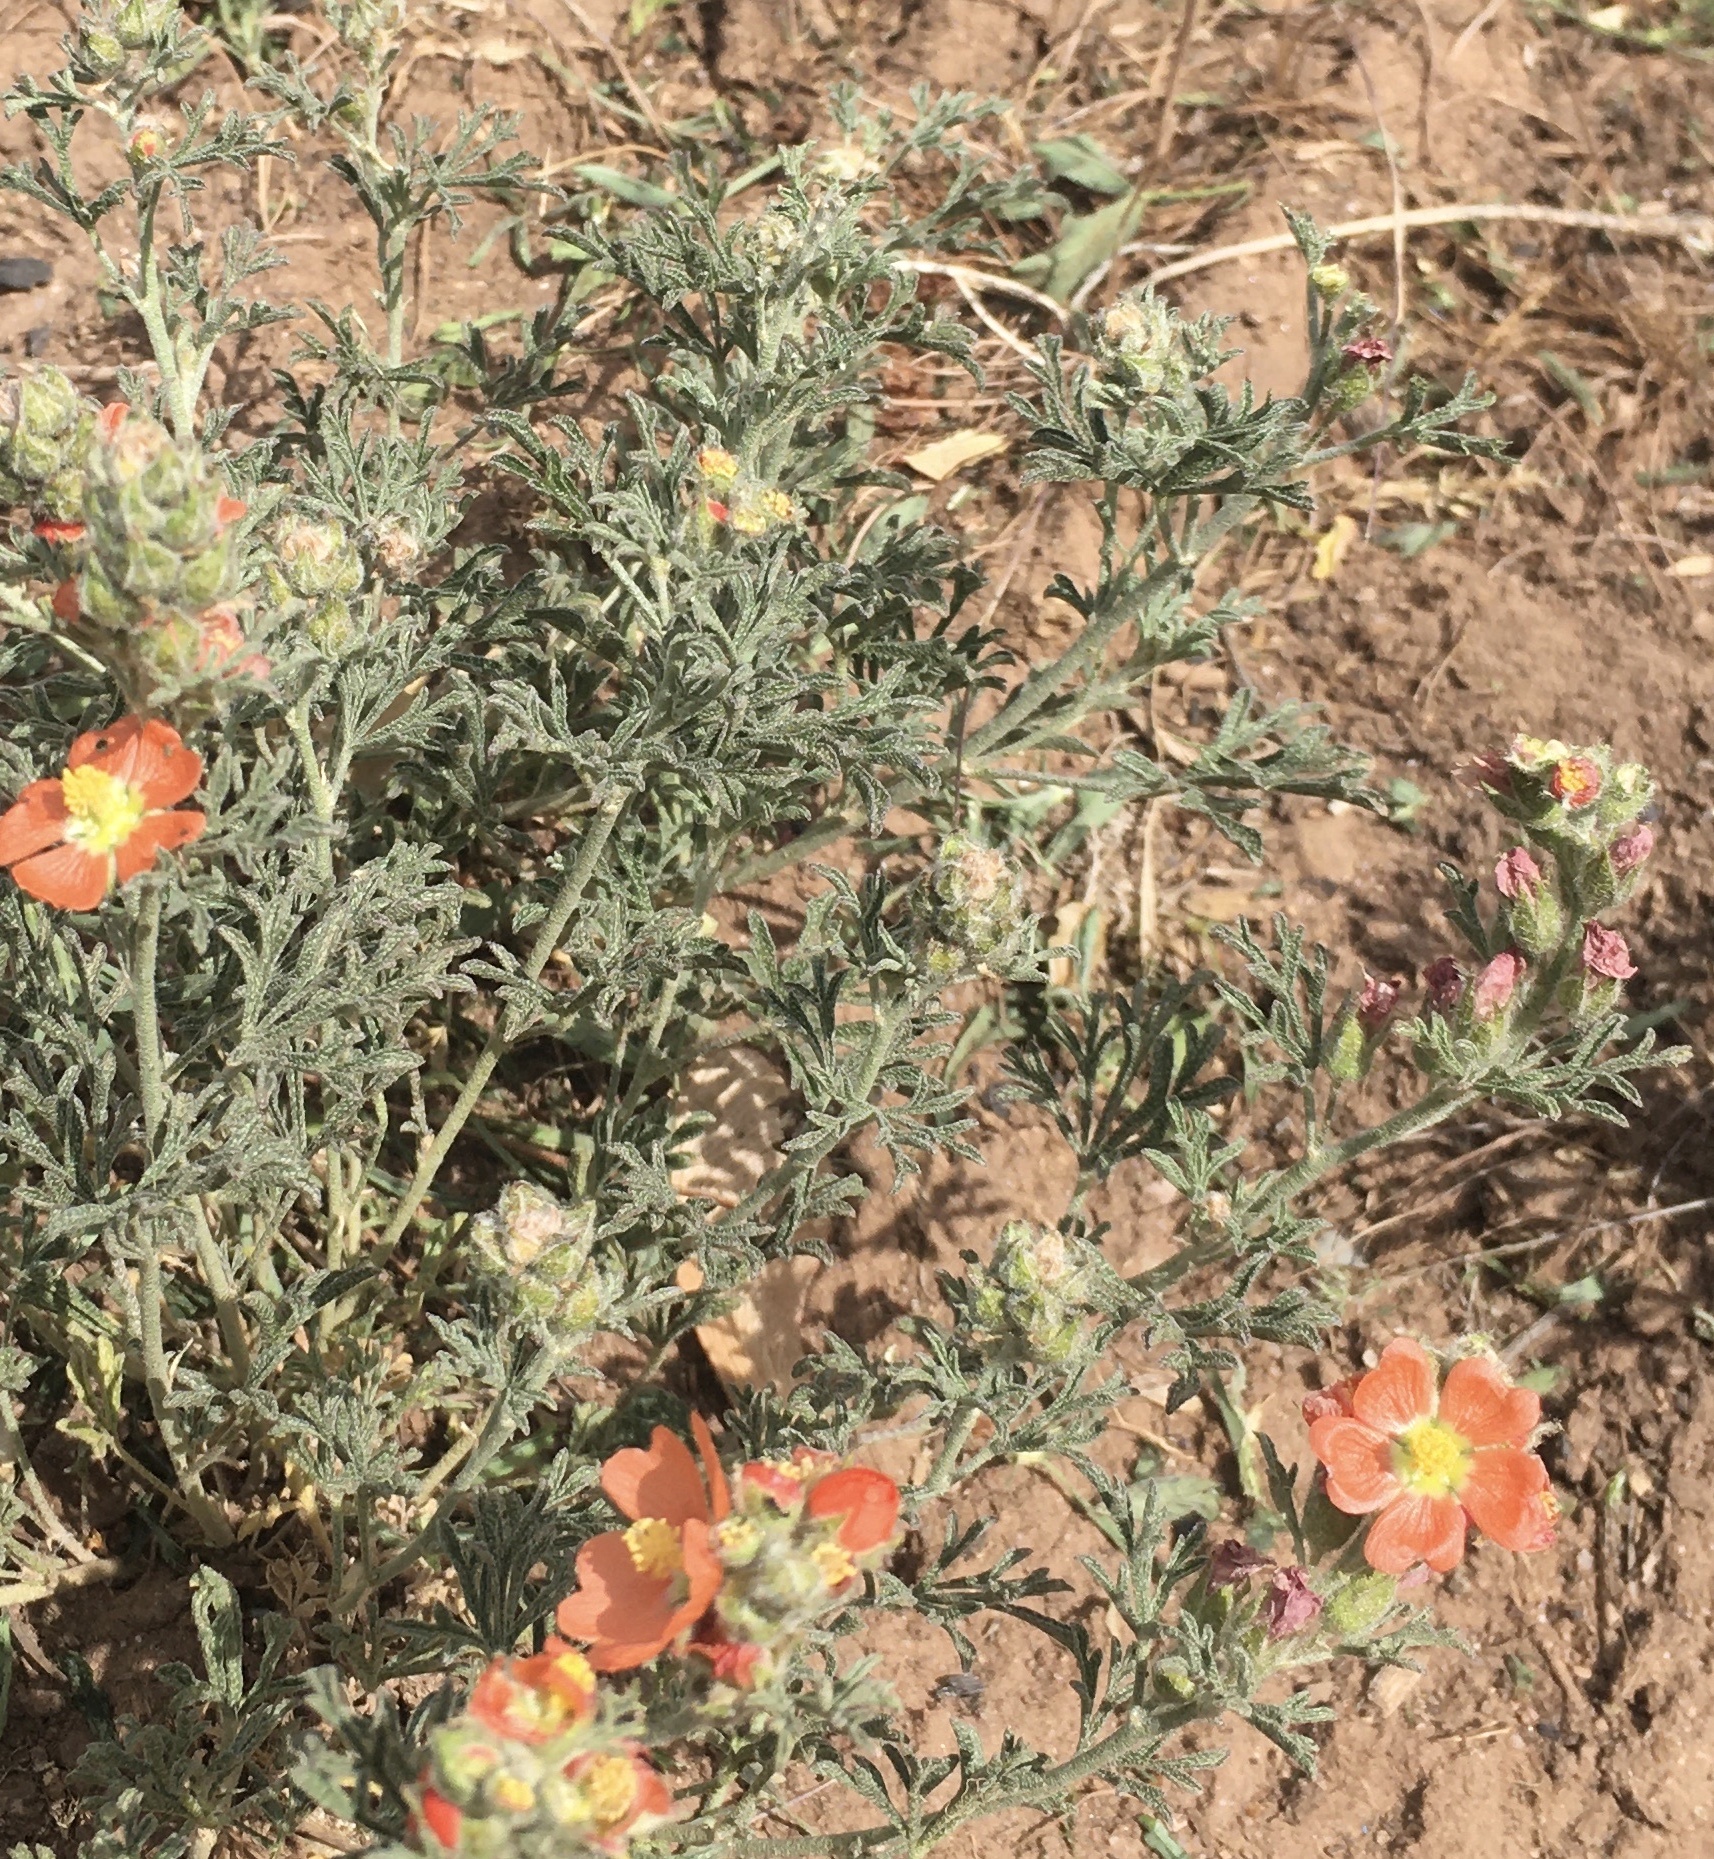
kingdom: Plantae
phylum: Tracheophyta
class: Magnoliopsida
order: Malvales
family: Malvaceae
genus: Sphaeralcea
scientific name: Sphaeralcea coccinea
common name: Moss-rose
